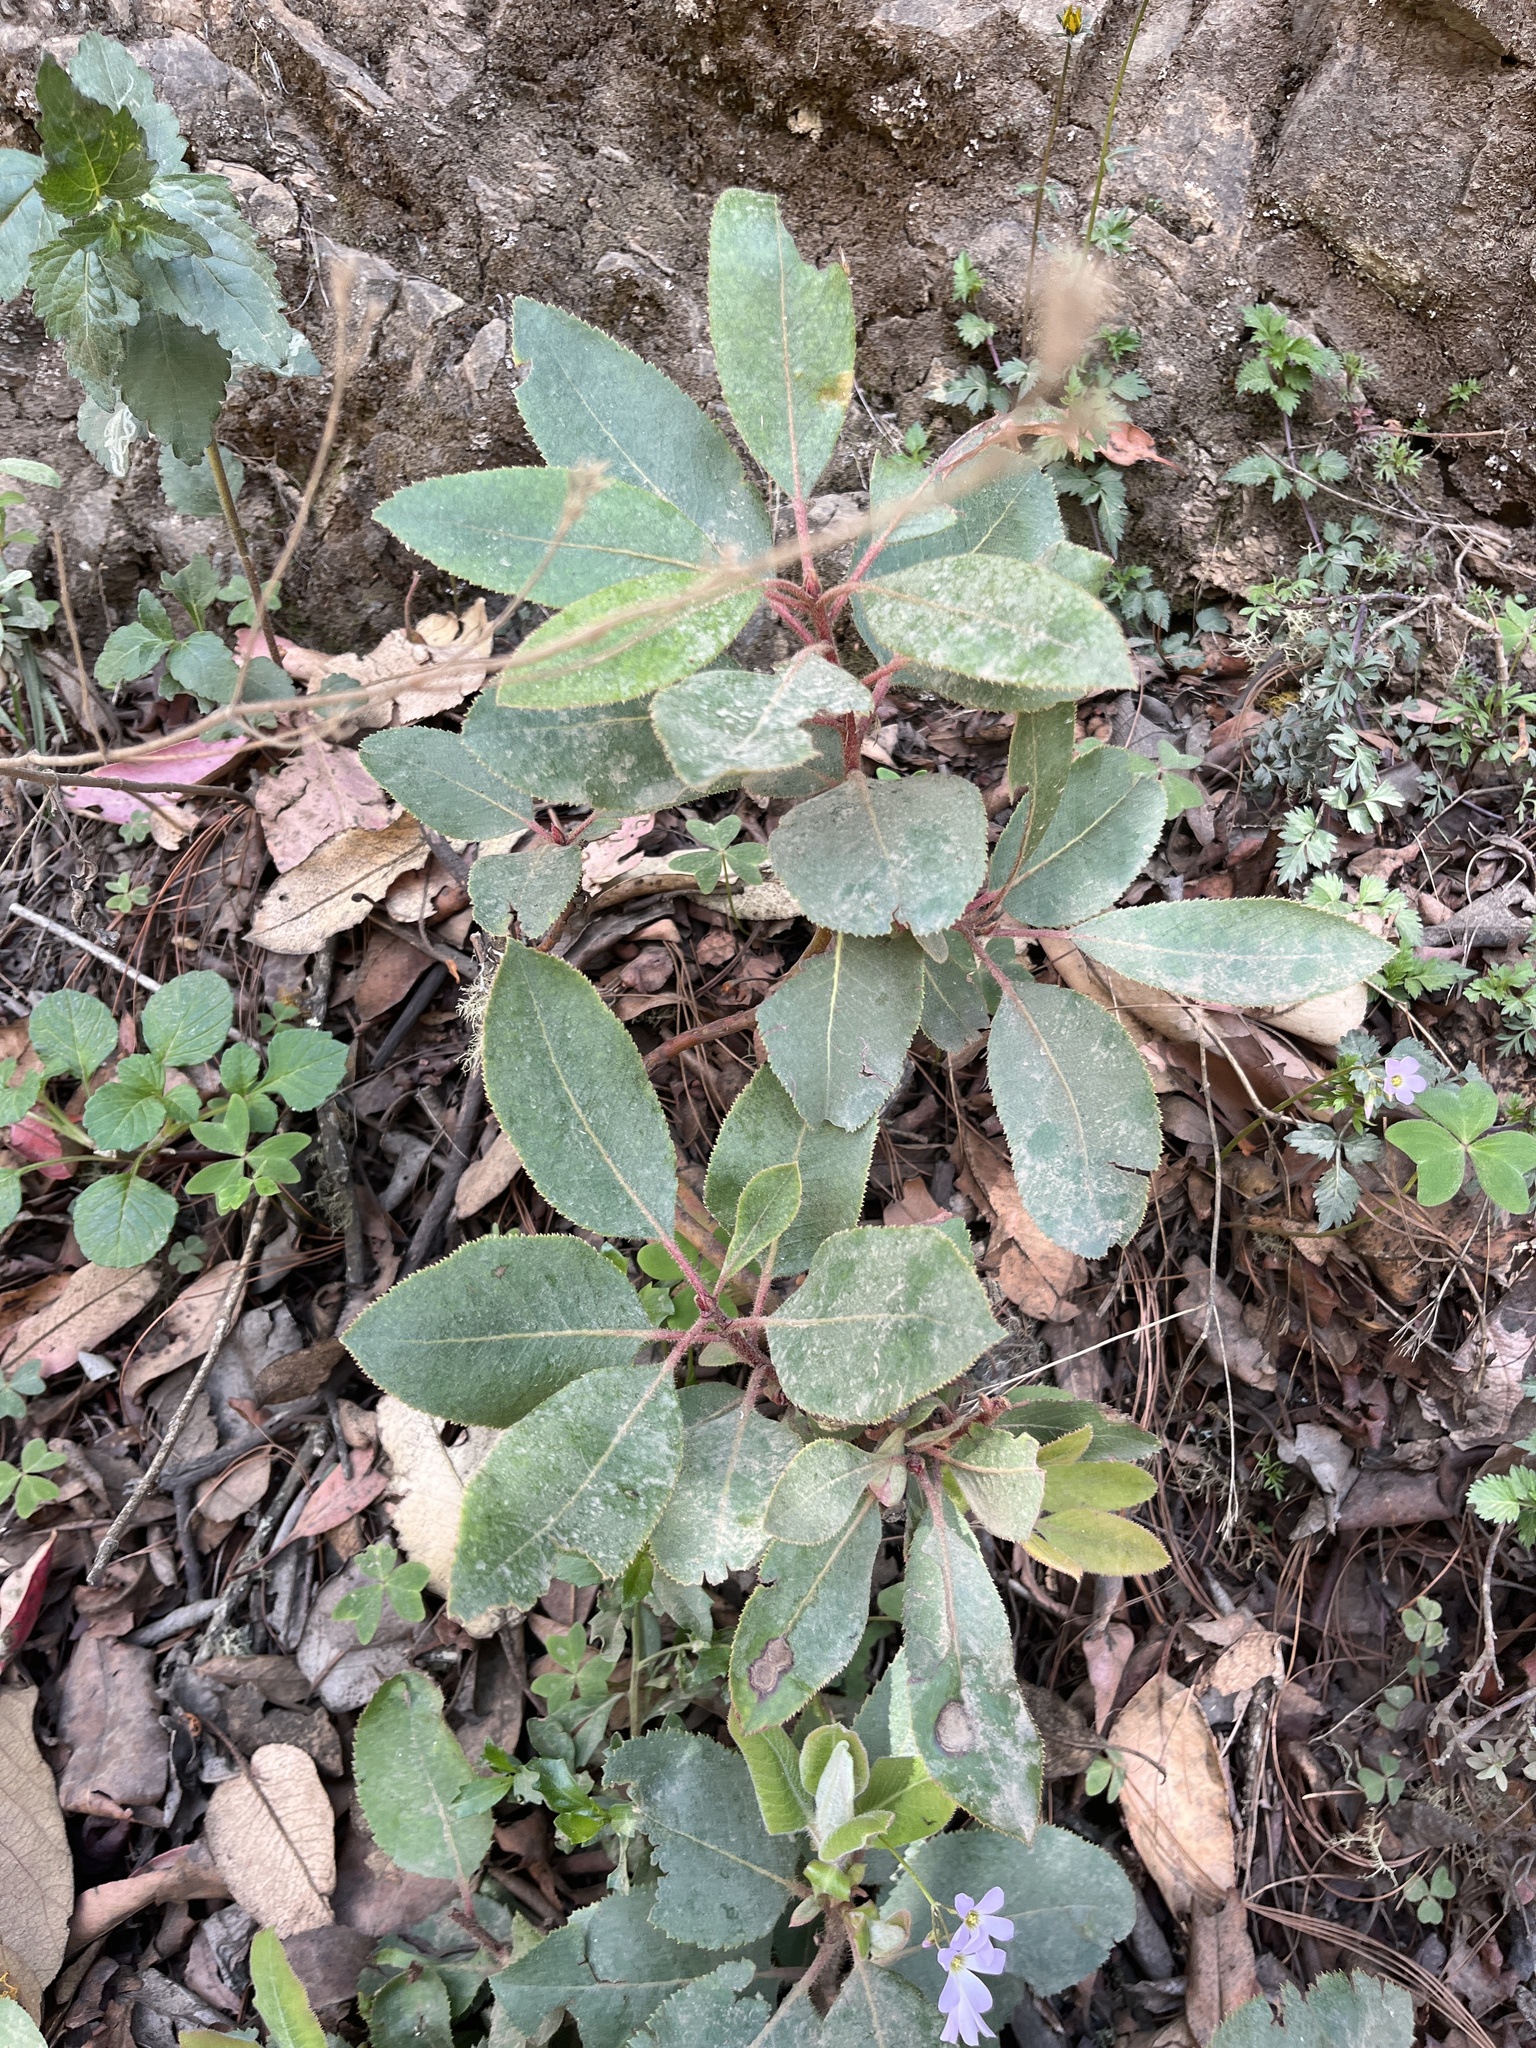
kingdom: Plantae
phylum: Tracheophyta
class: Magnoliopsida
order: Ericales
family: Ericaceae
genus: Arbutus
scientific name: Arbutus xalapensis
